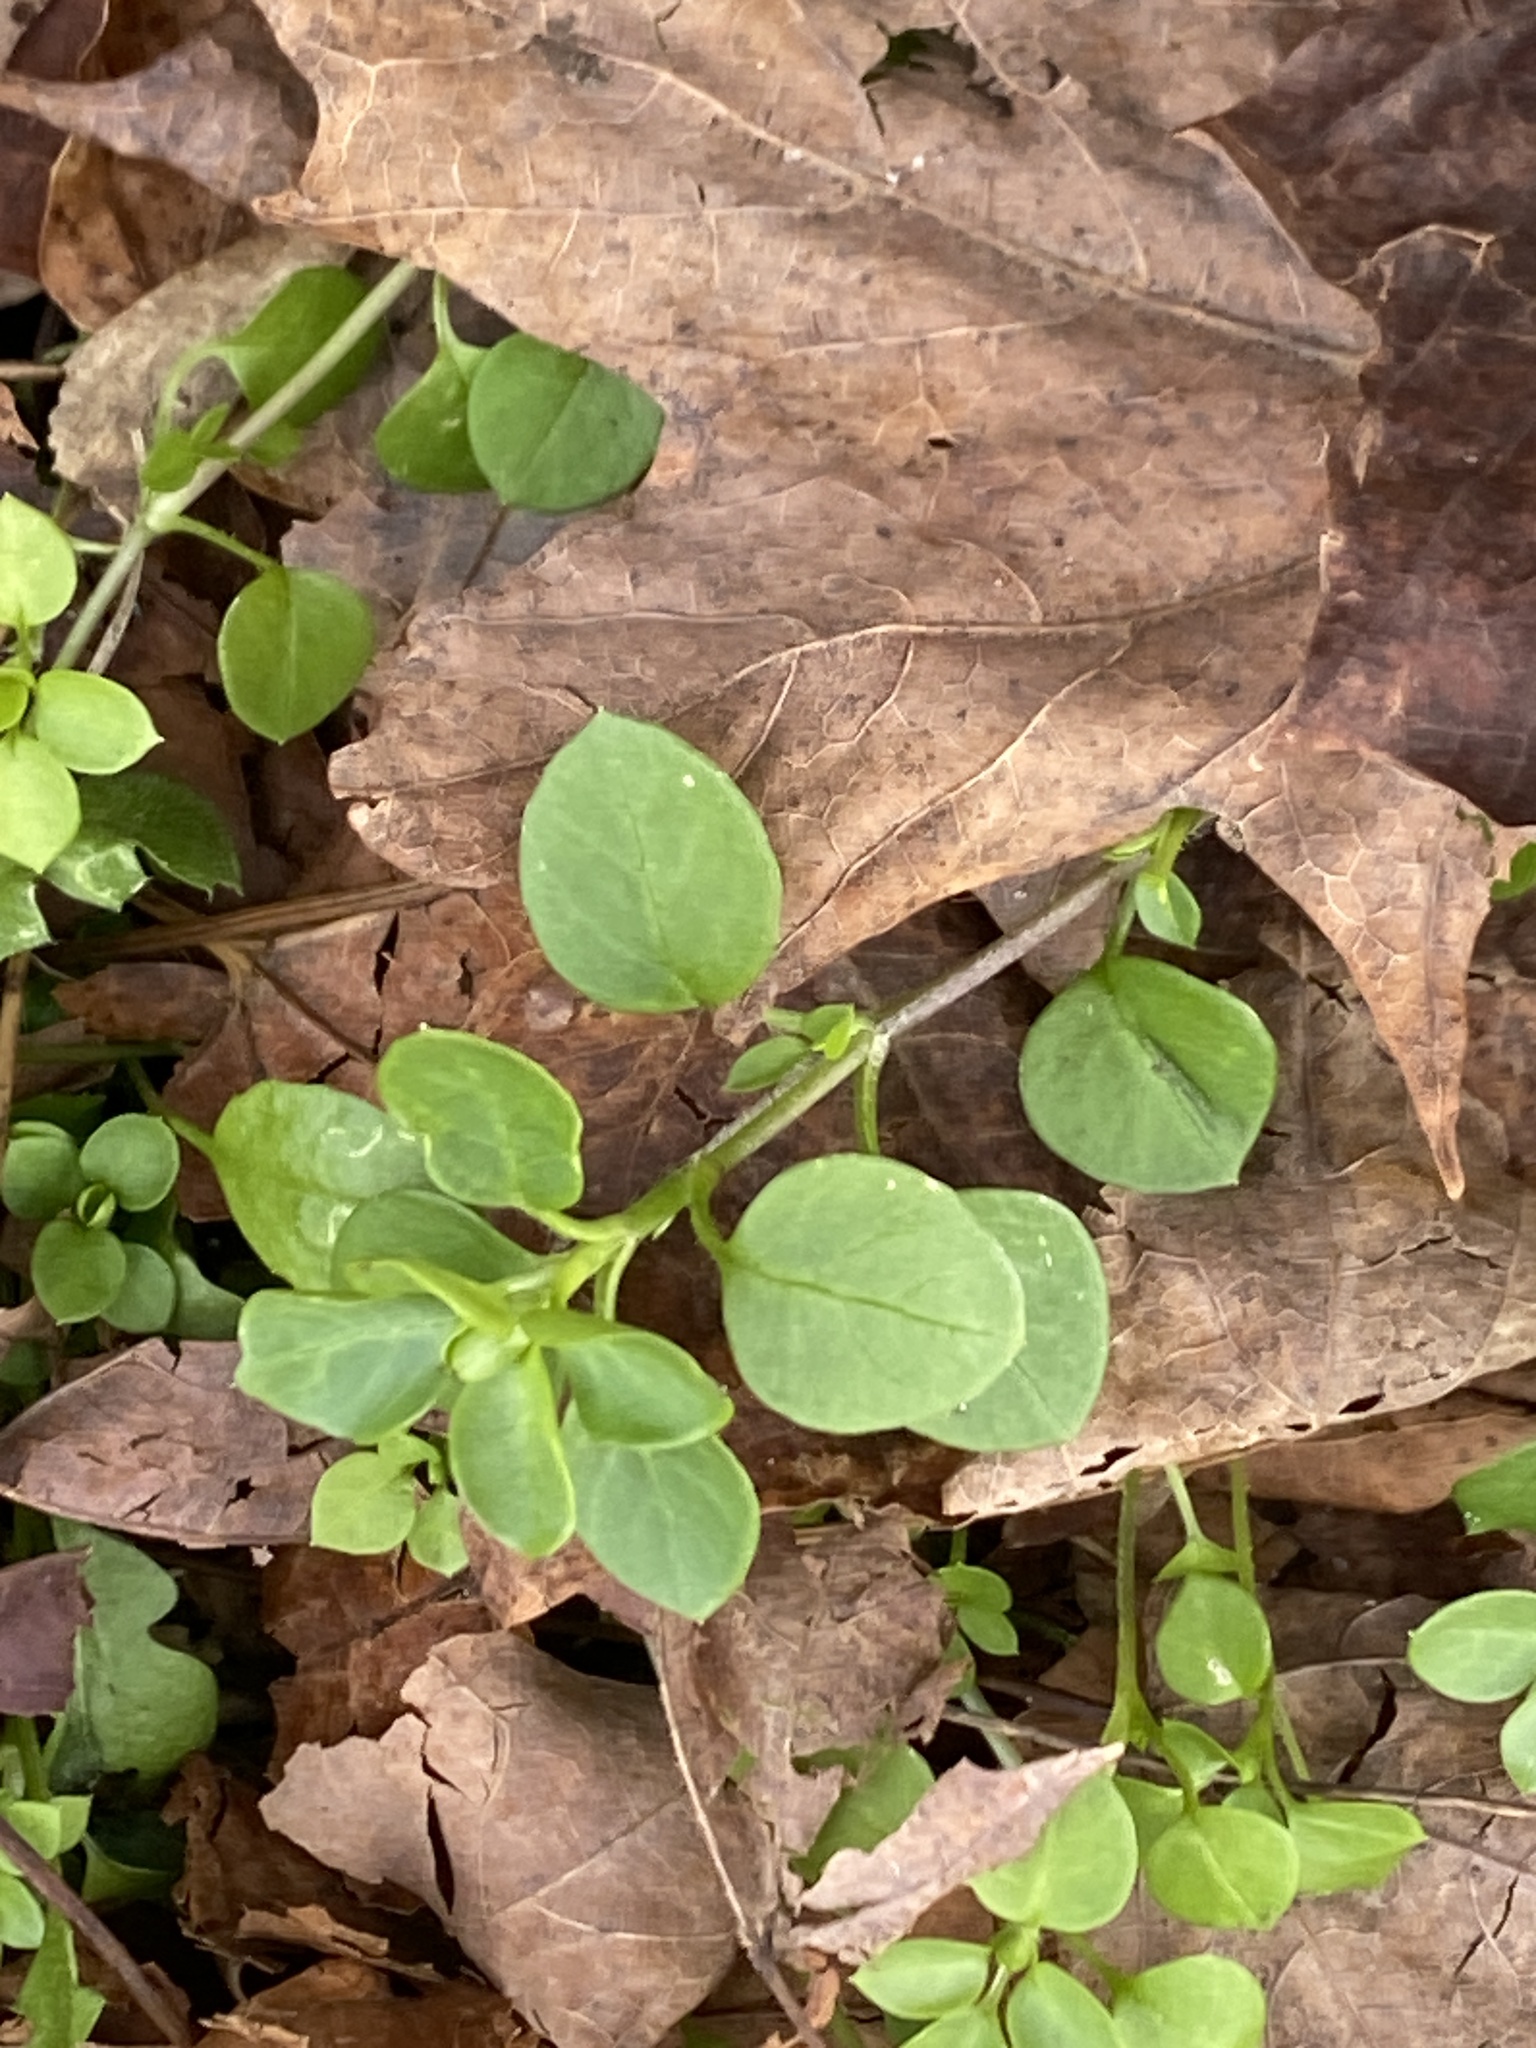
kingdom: Plantae
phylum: Tracheophyta
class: Magnoliopsida
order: Caryophyllales
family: Caryophyllaceae
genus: Stellaria
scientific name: Stellaria media
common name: Common chickweed
